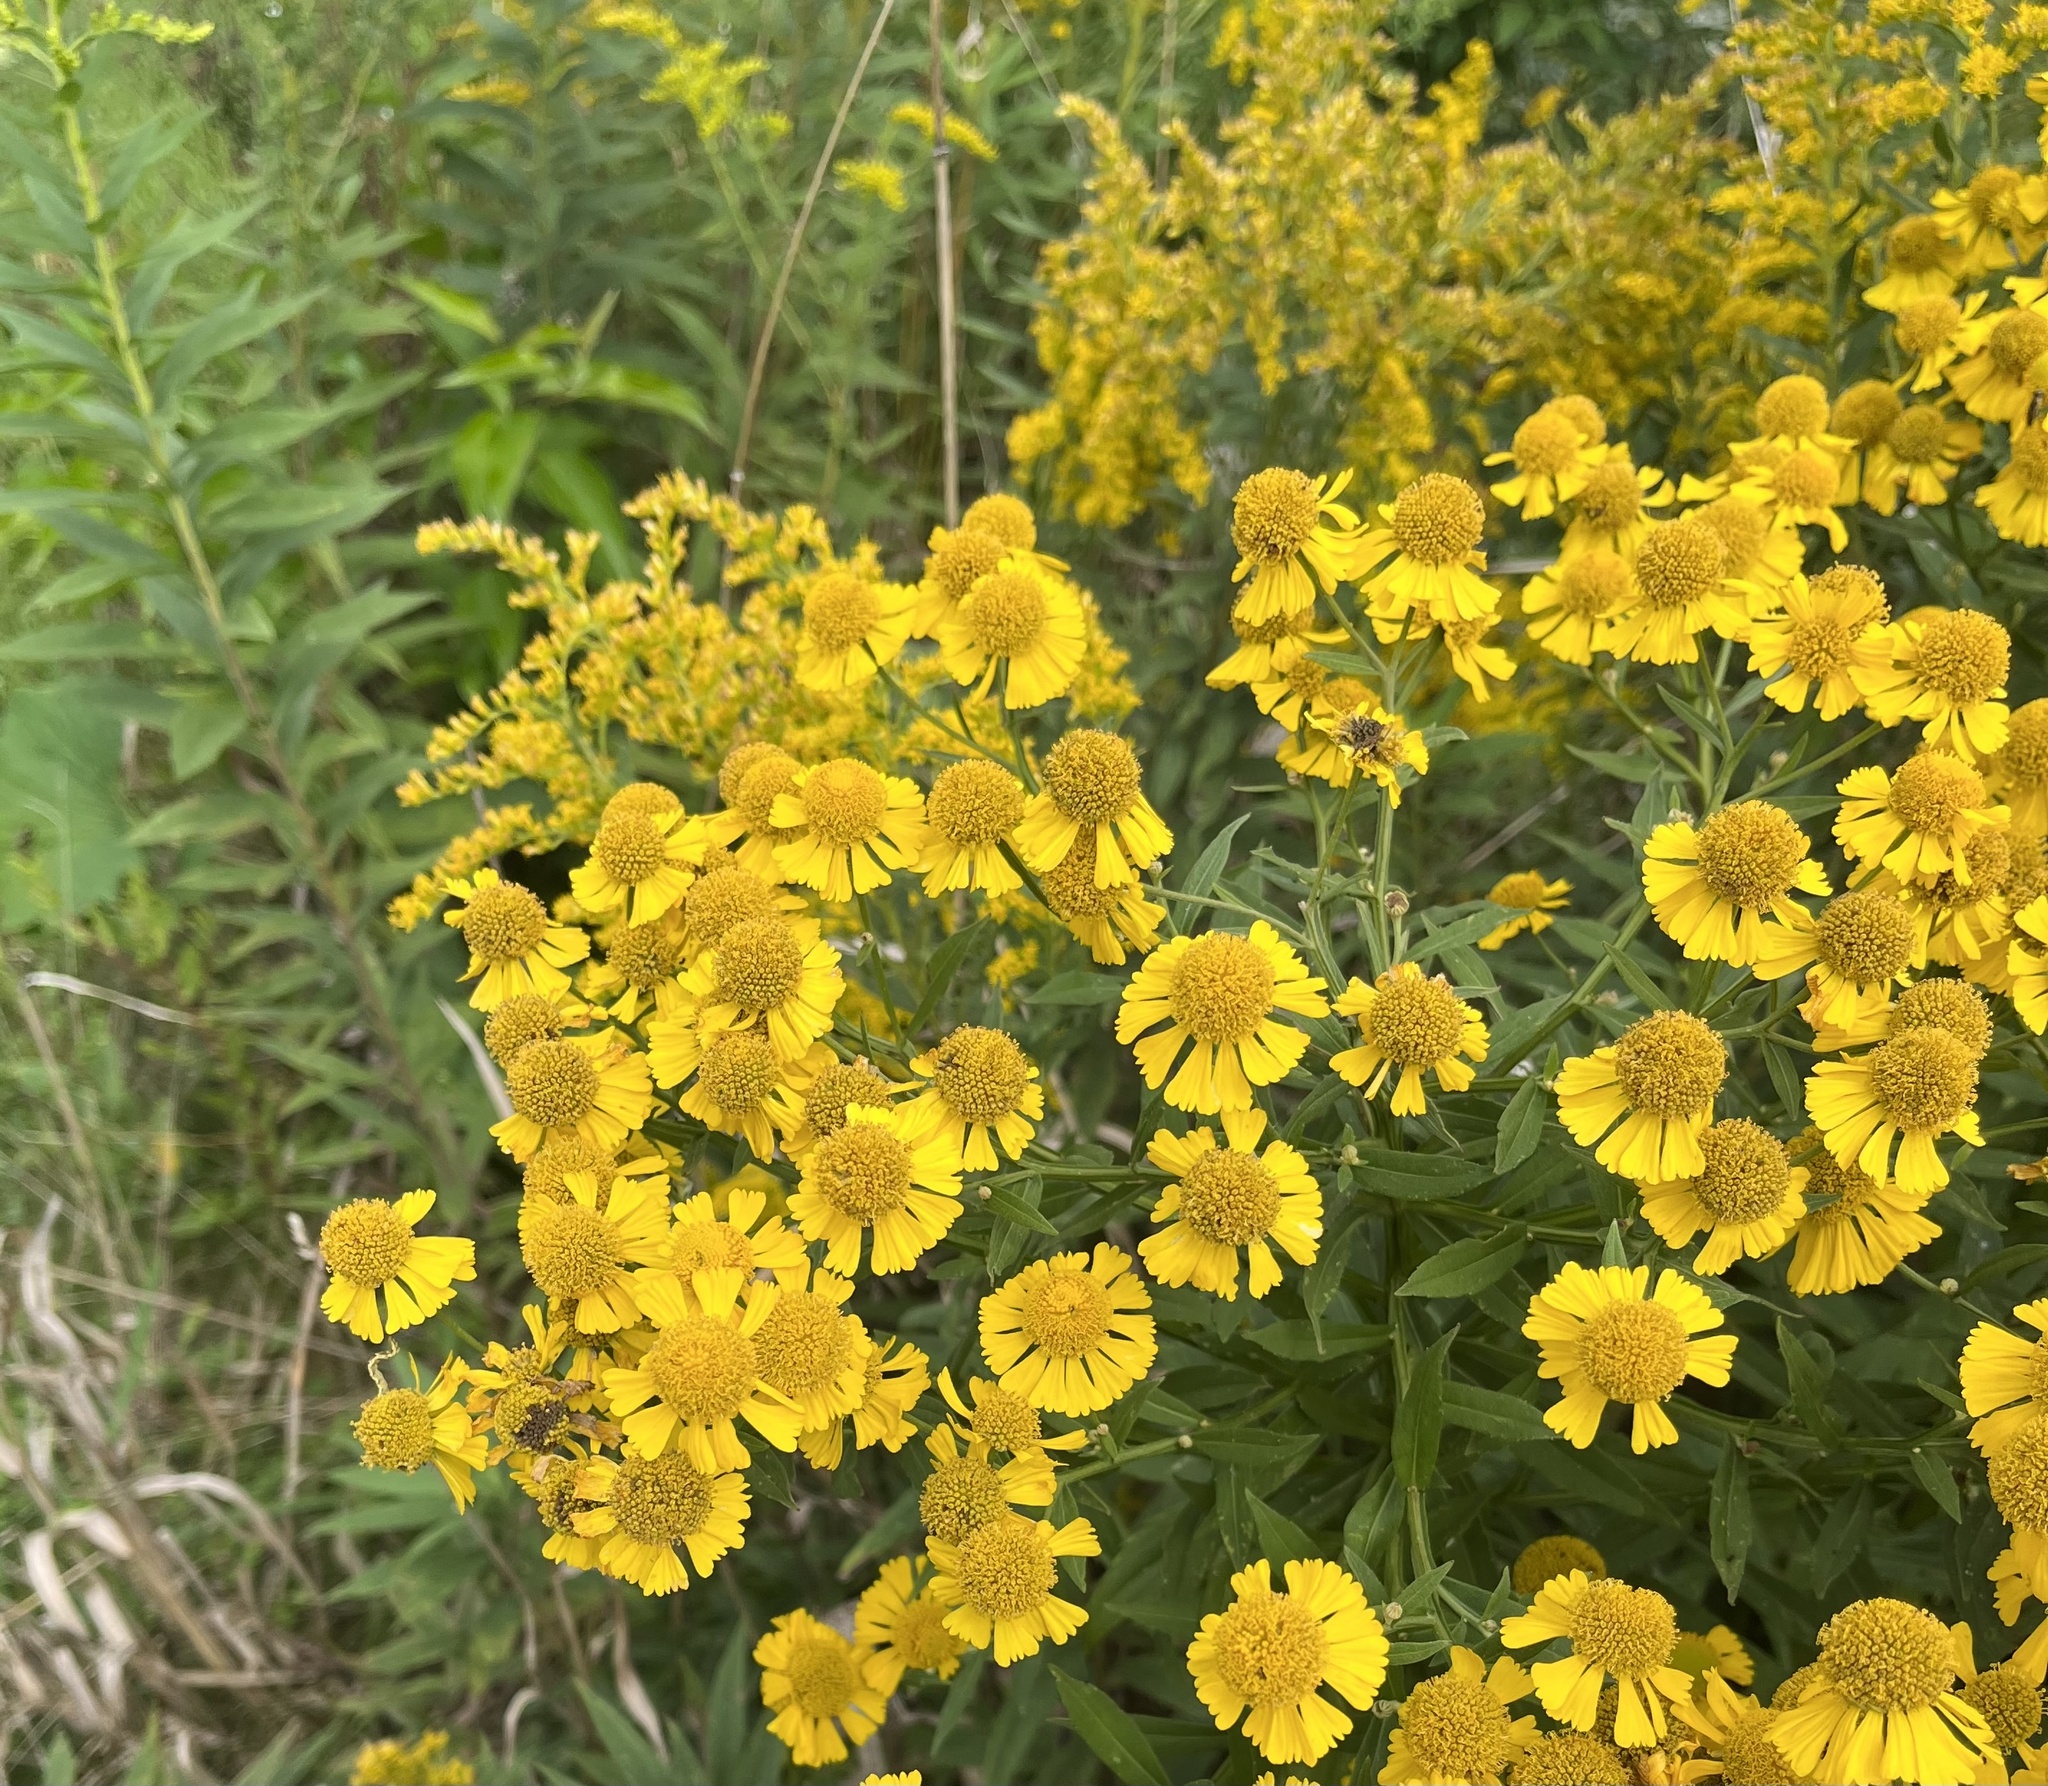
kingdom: Plantae
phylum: Tracheophyta
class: Magnoliopsida
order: Asterales
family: Asteraceae
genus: Helenium
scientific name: Helenium autumnale
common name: Sneezeweed
